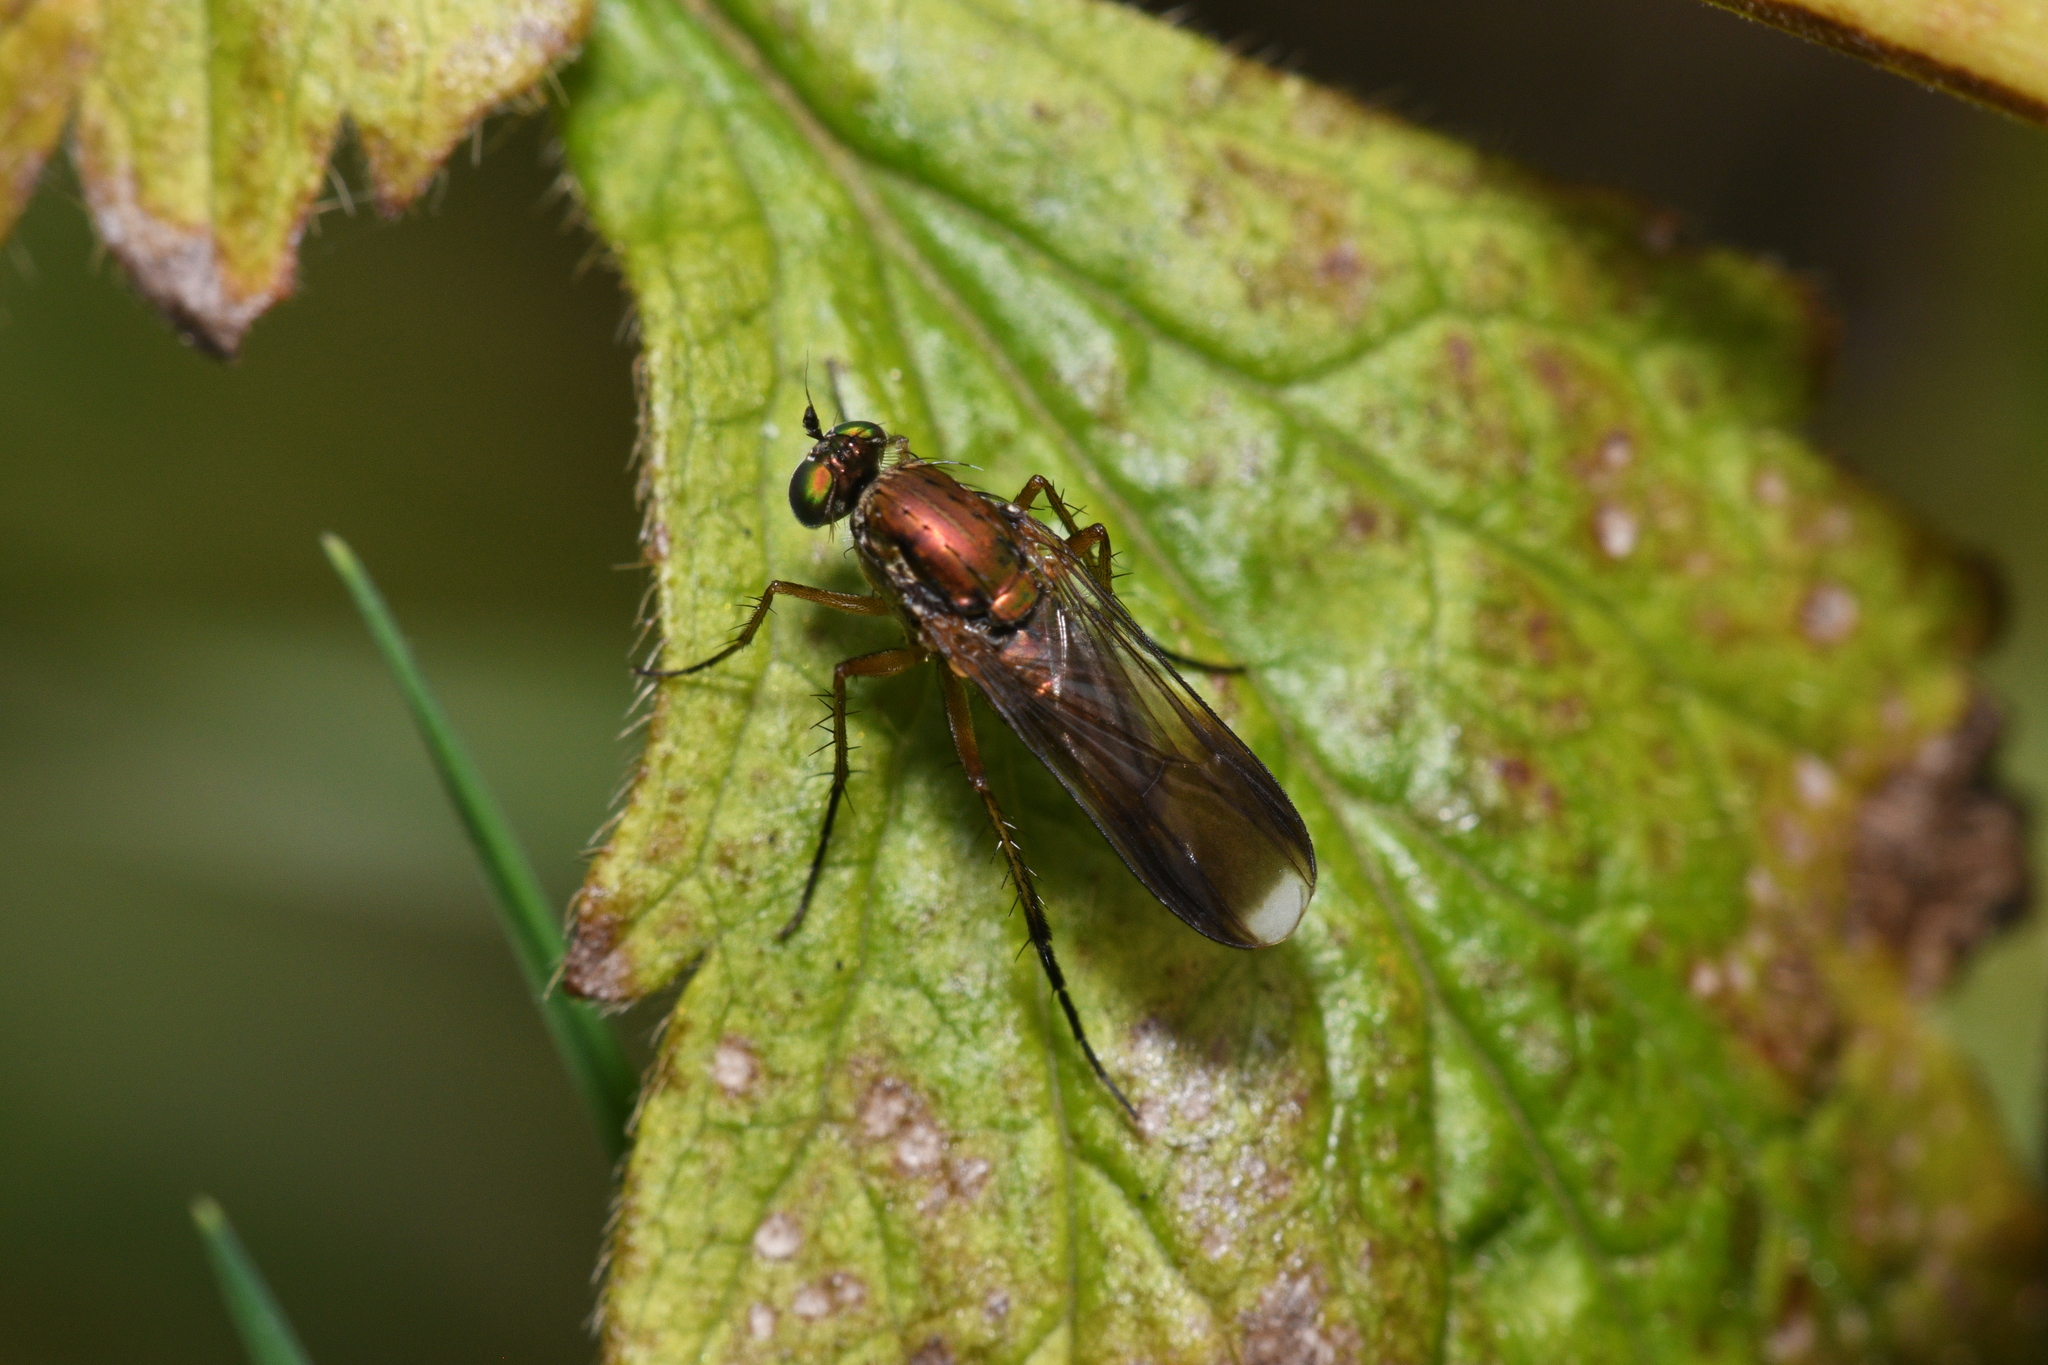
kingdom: Animalia
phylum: Arthropoda
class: Insecta
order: Diptera
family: Dolichopodidae
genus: Poecilobothrus
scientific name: Poecilobothrus nobilitatus
